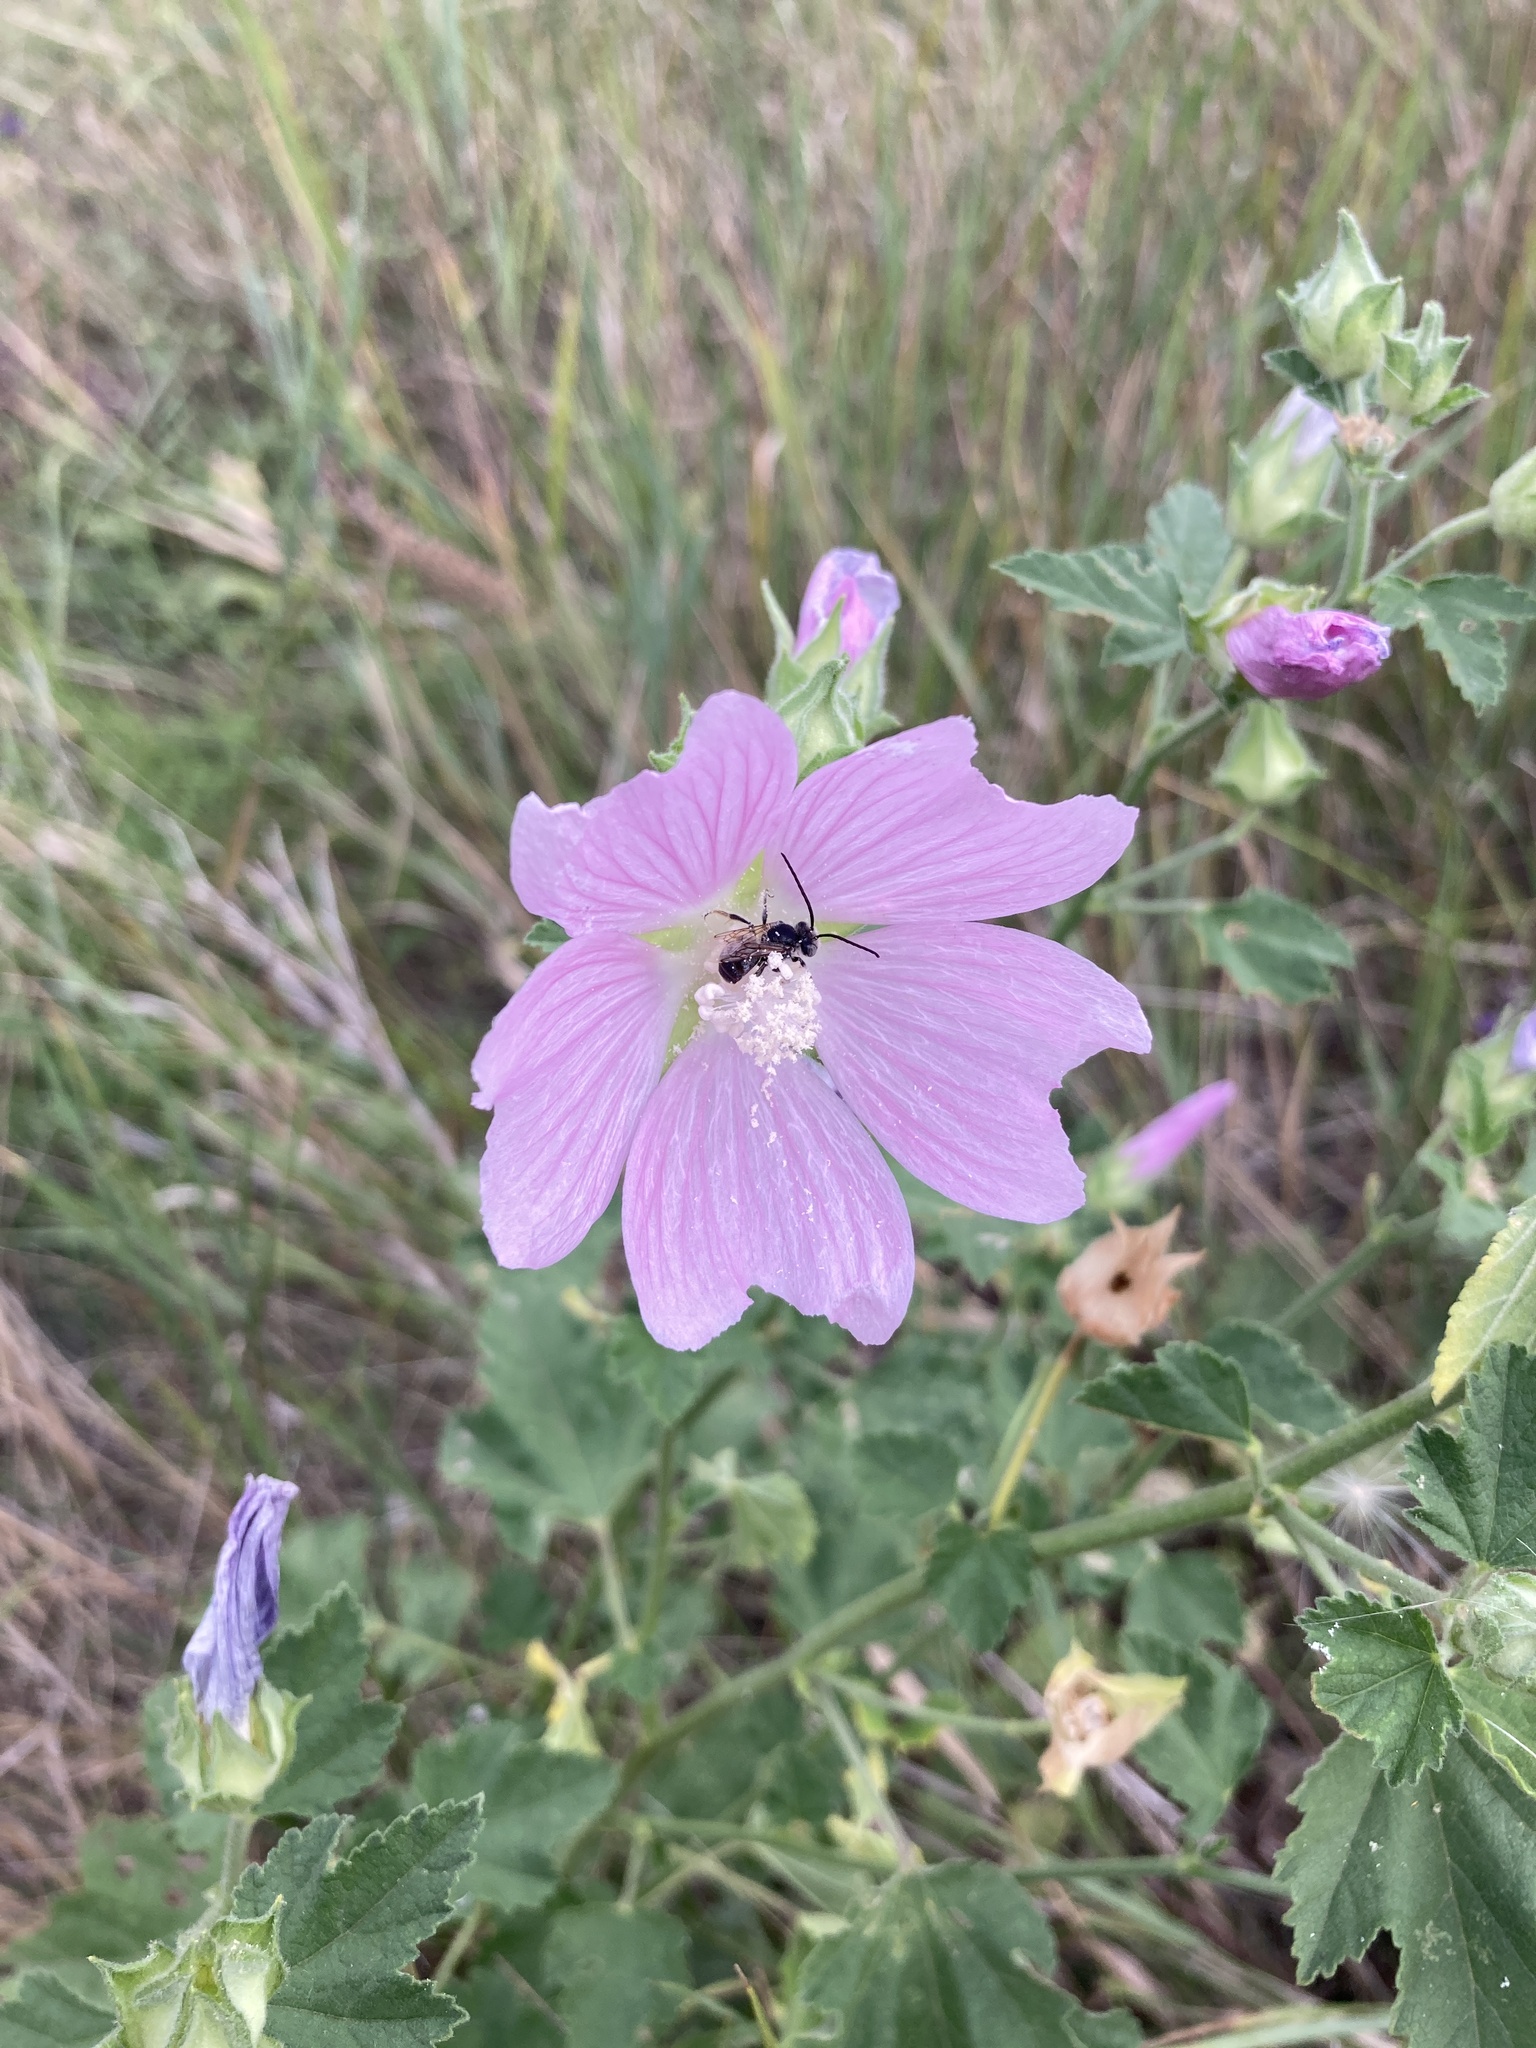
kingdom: Plantae
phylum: Tracheophyta
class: Magnoliopsida
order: Malvales
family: Malvaceae
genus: Malva
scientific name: Malva thuringiaca
